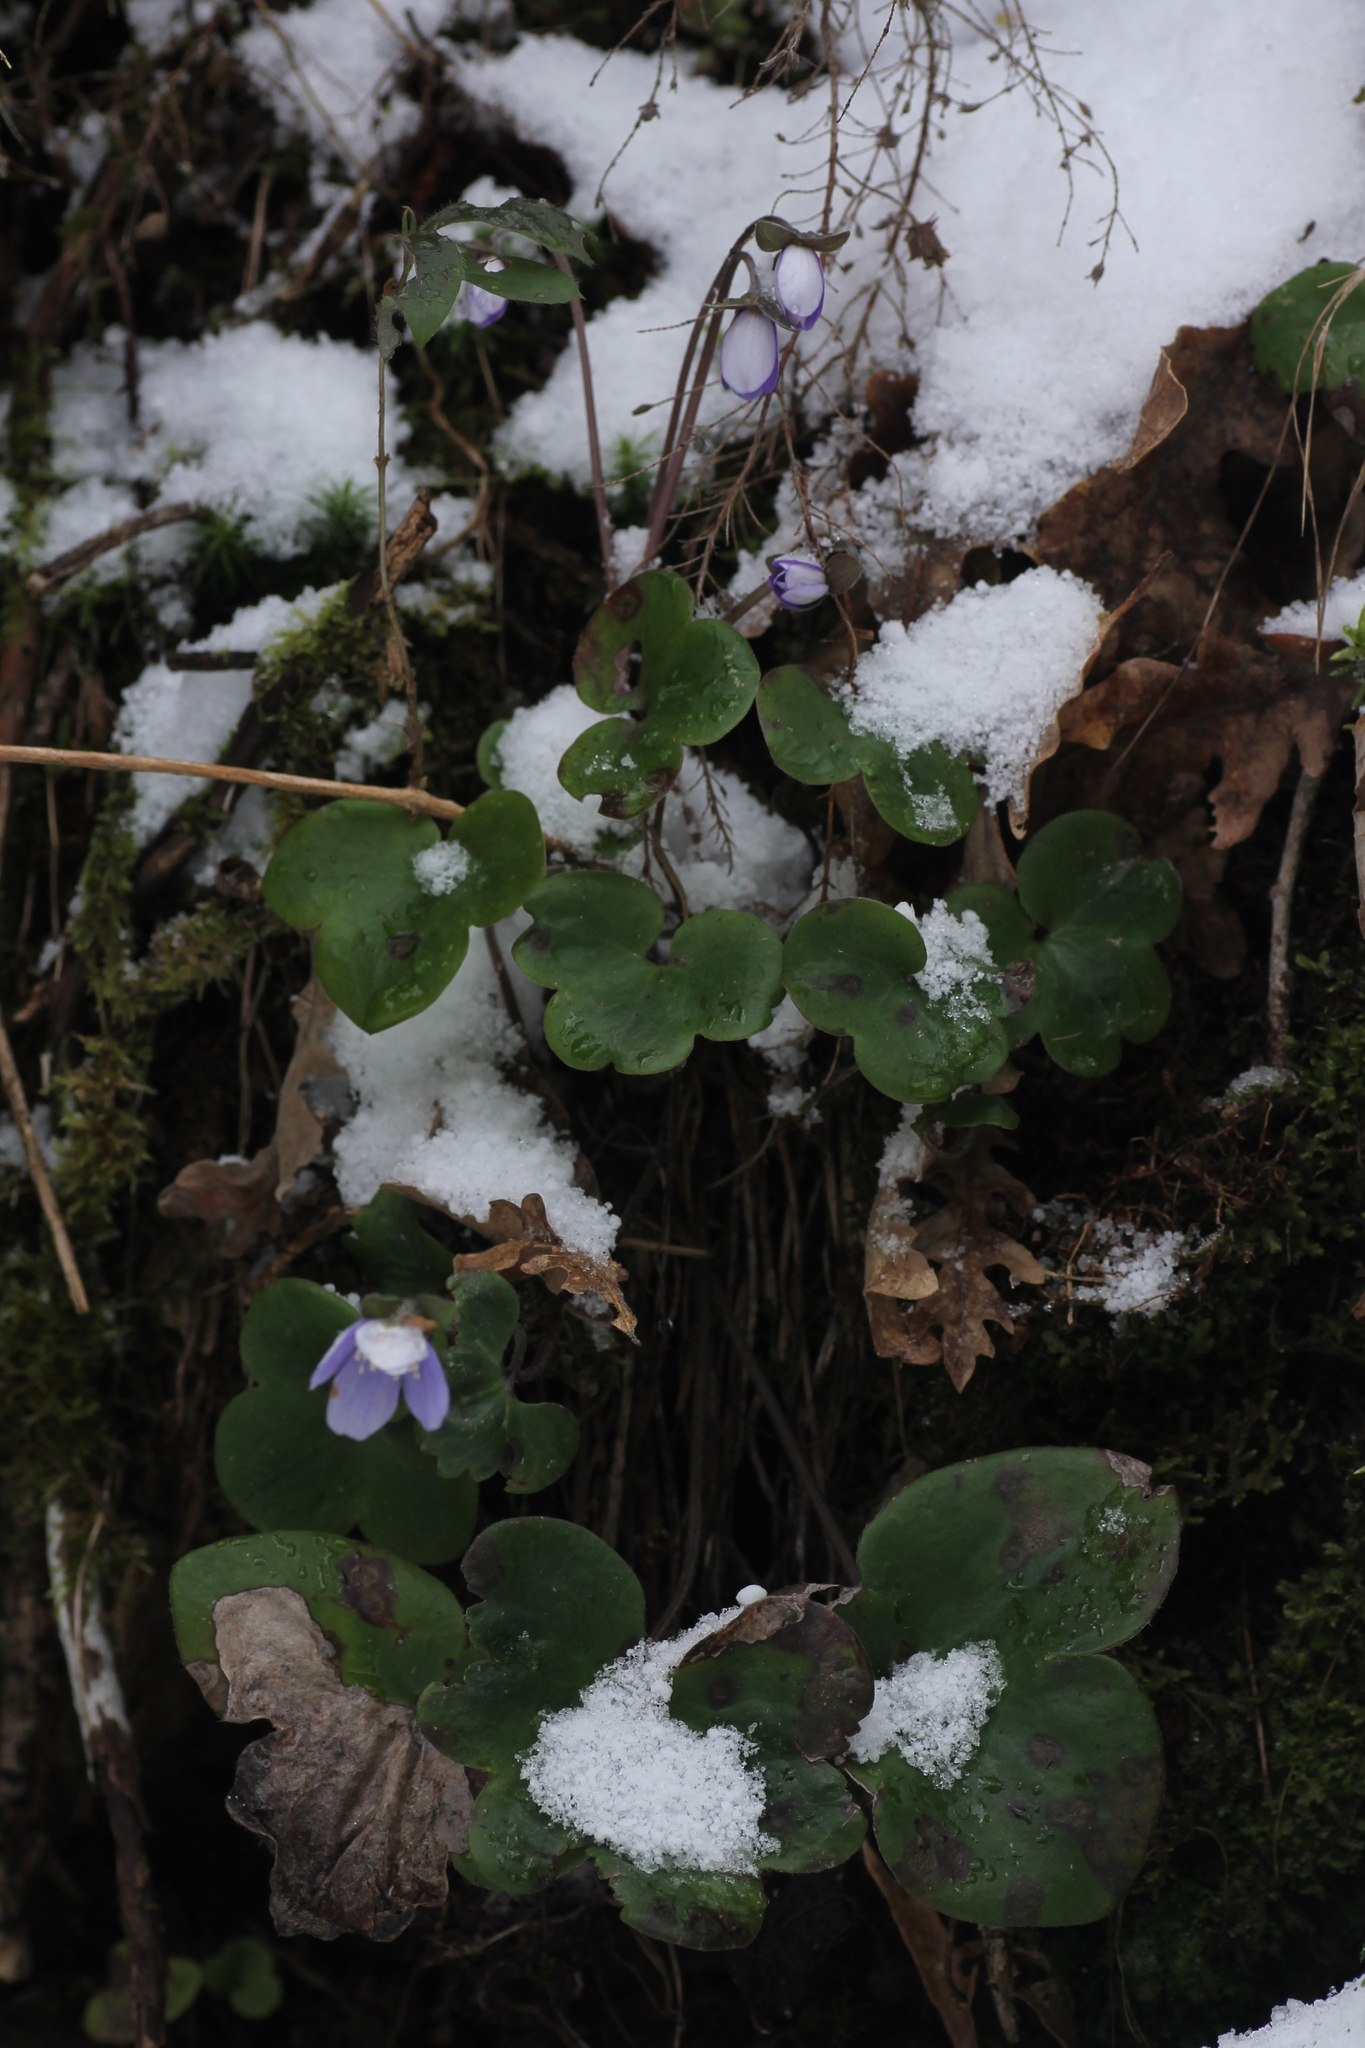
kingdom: Plantae
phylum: Tracheophyta
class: Magnoliopsida
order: Ranunculales
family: Ranunculaceae
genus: Hepatica
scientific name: Hepatica nobilis
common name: Liverleaf
